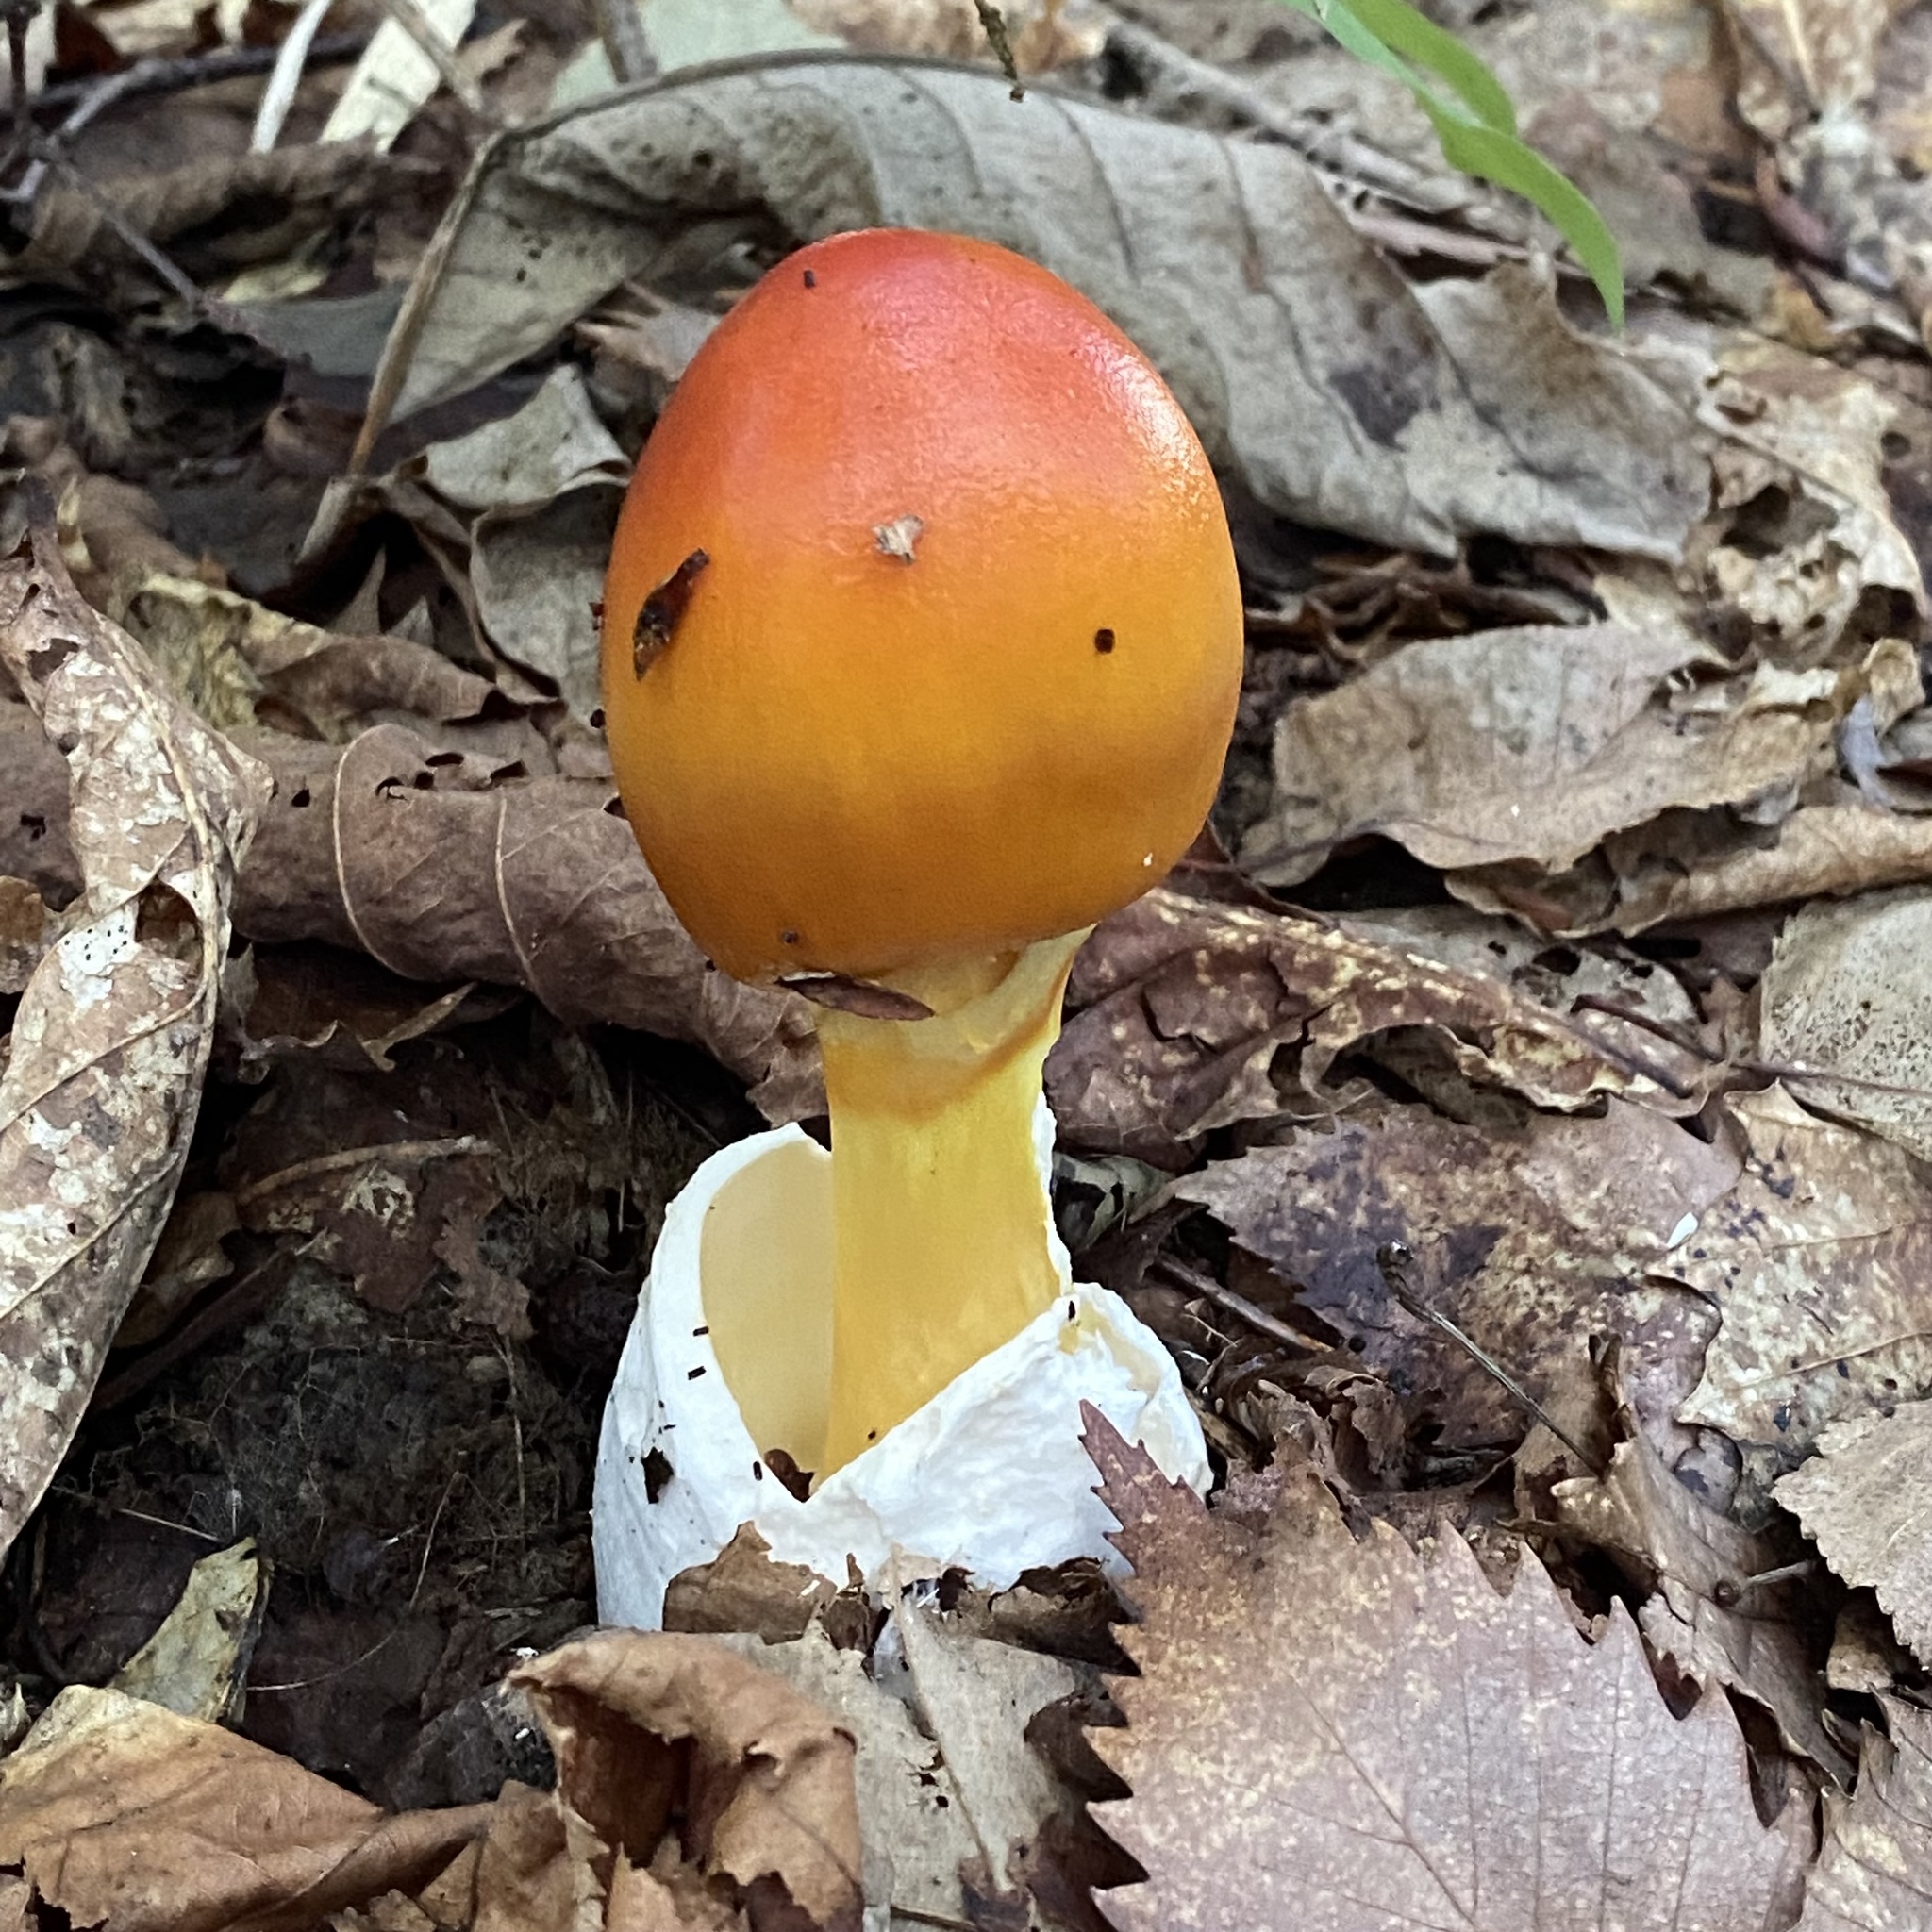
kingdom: Fungi
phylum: Basidiomycota
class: Agaricomycetes
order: Agaricales
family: Amanitaceae
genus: Amanita
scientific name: Amanita caesareoides
